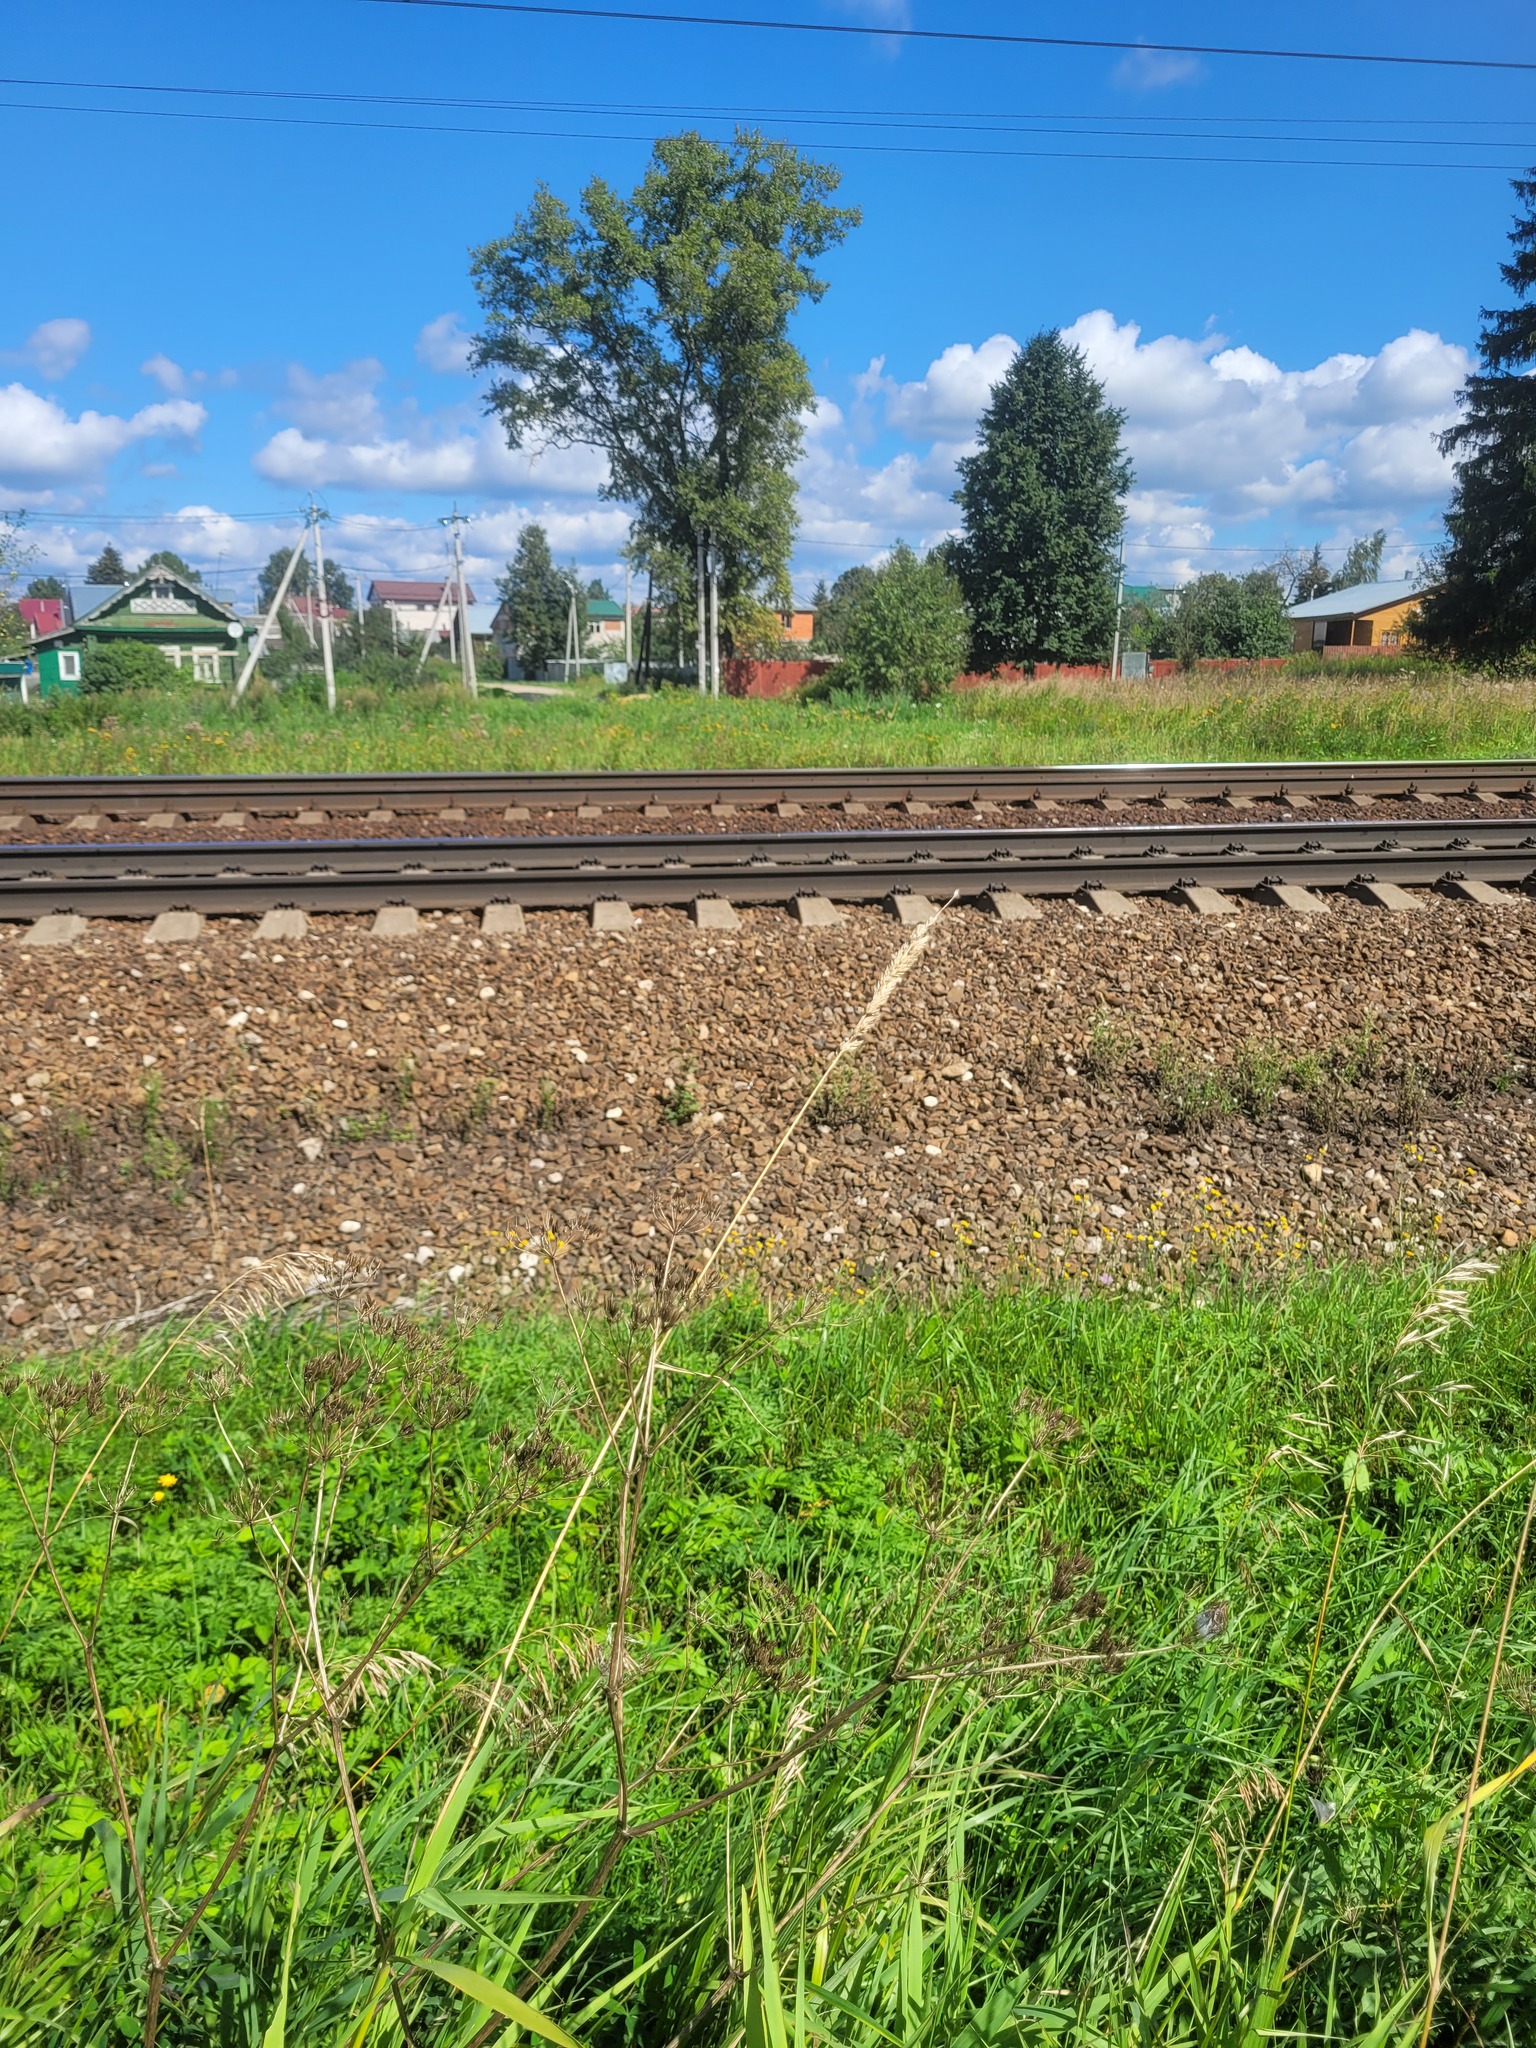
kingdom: Plantae
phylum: Tracheophyta
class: Liliopsida
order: Poales
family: Poaceae
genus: Phalaris
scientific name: Phalaris arundinacea
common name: Reed canary-grass
